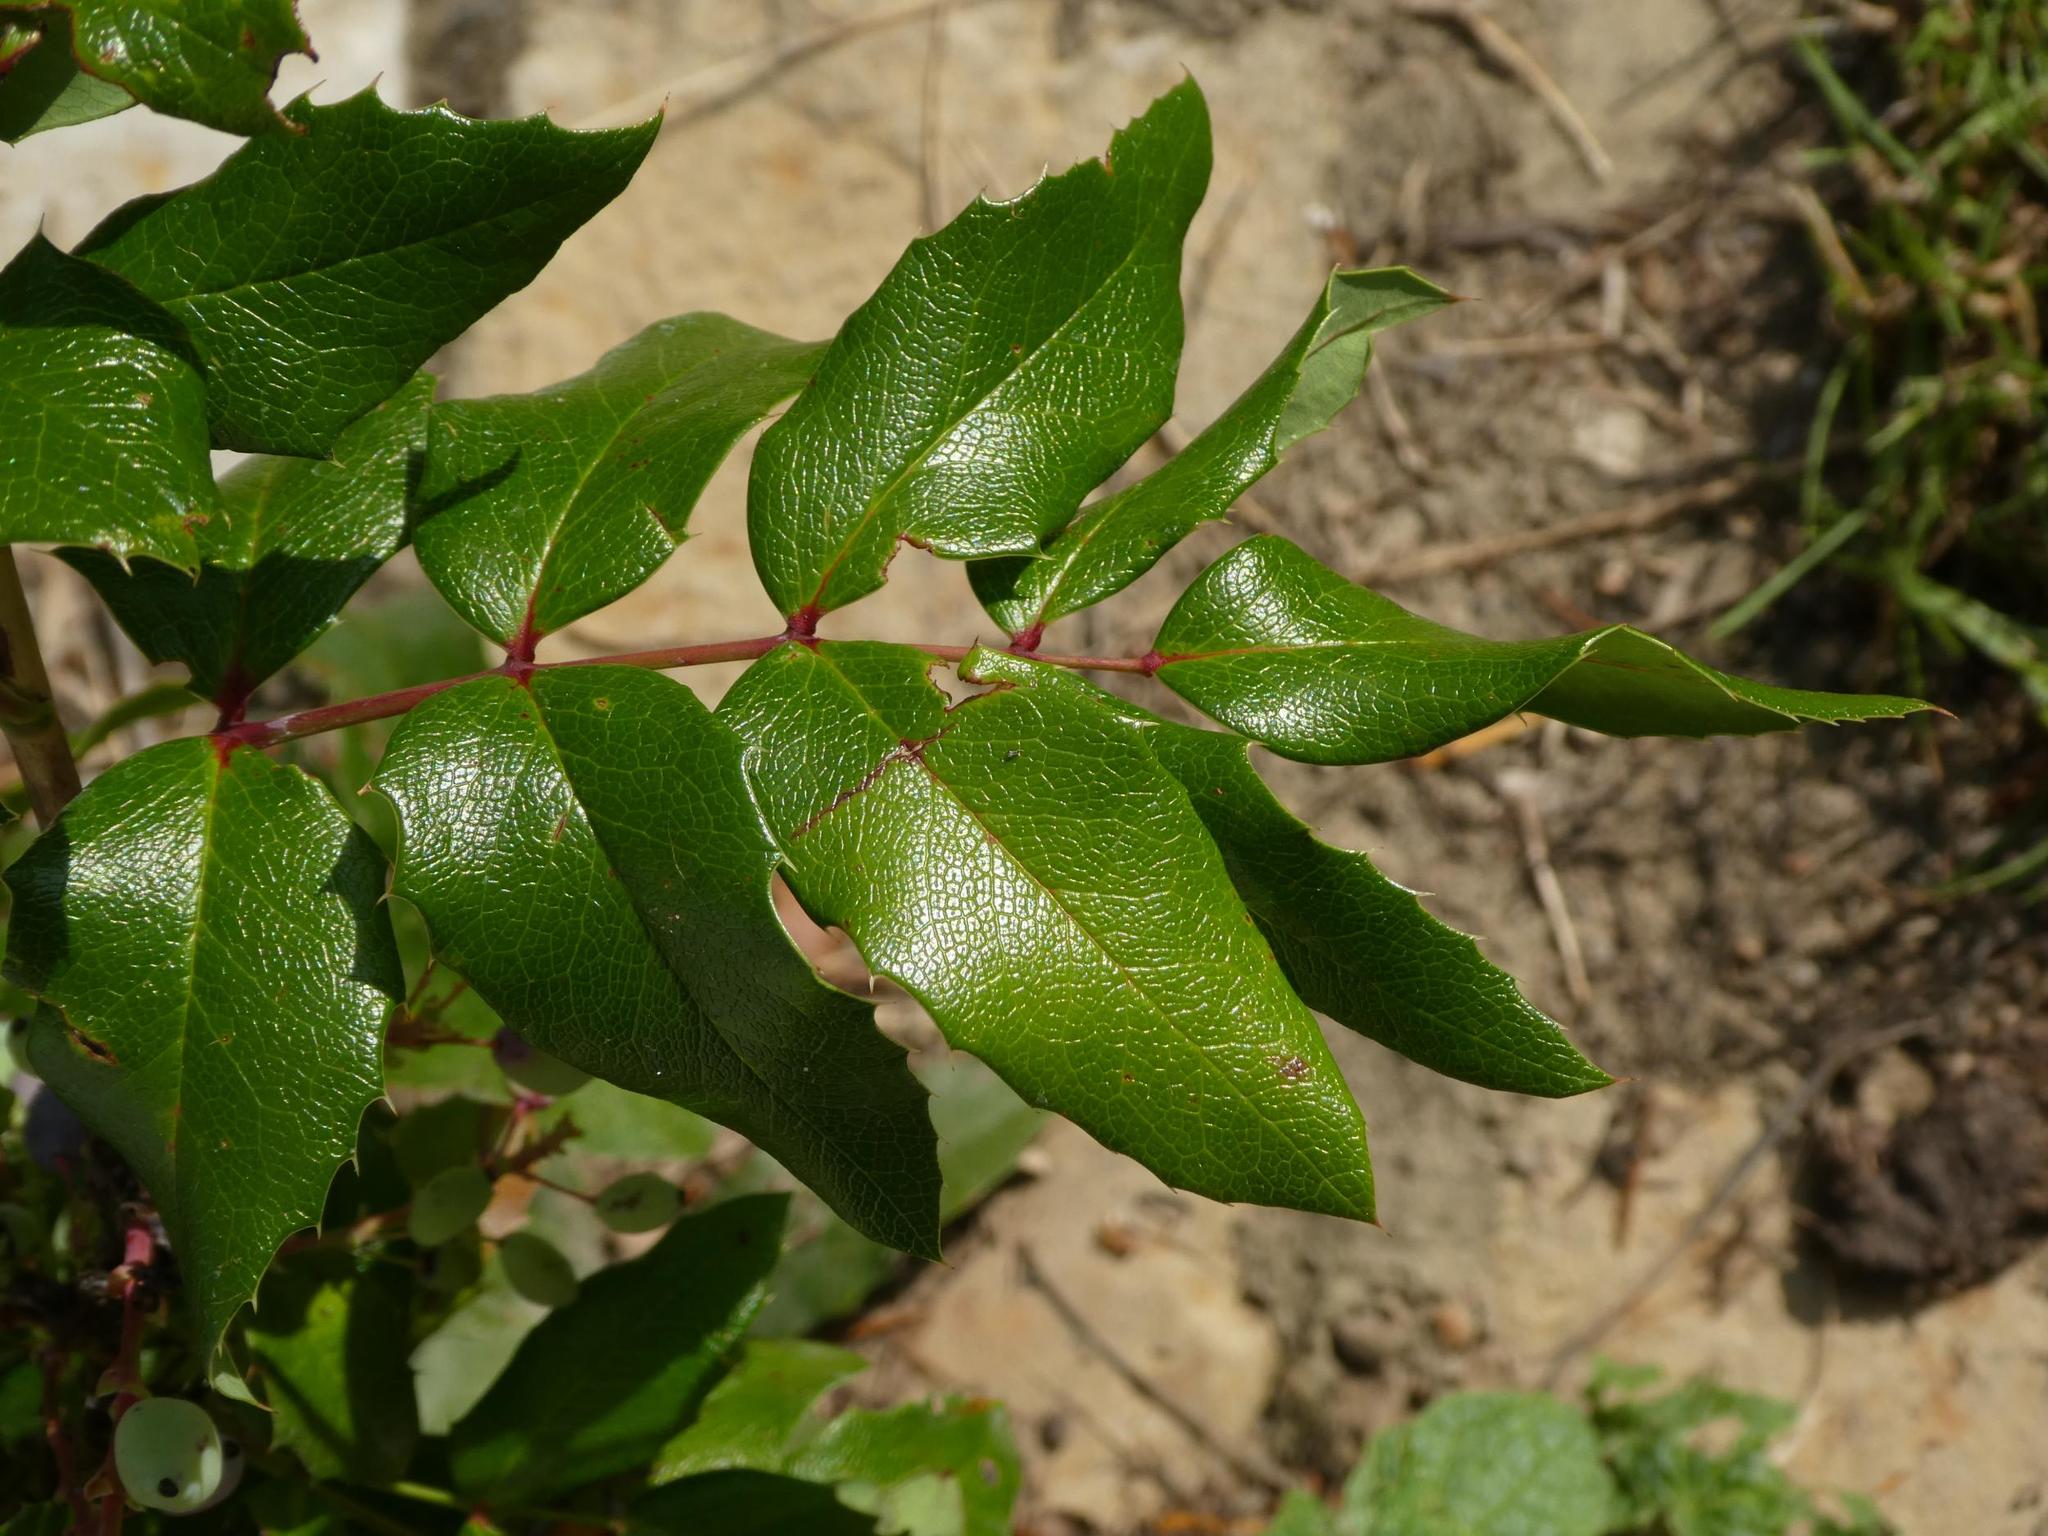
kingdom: Plantae
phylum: Tracheophyta
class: Magnoliopsida
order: Ranunculales
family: Berberidaceae
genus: Mahonia
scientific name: Mahonia aquifolium
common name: Oregon-grape
